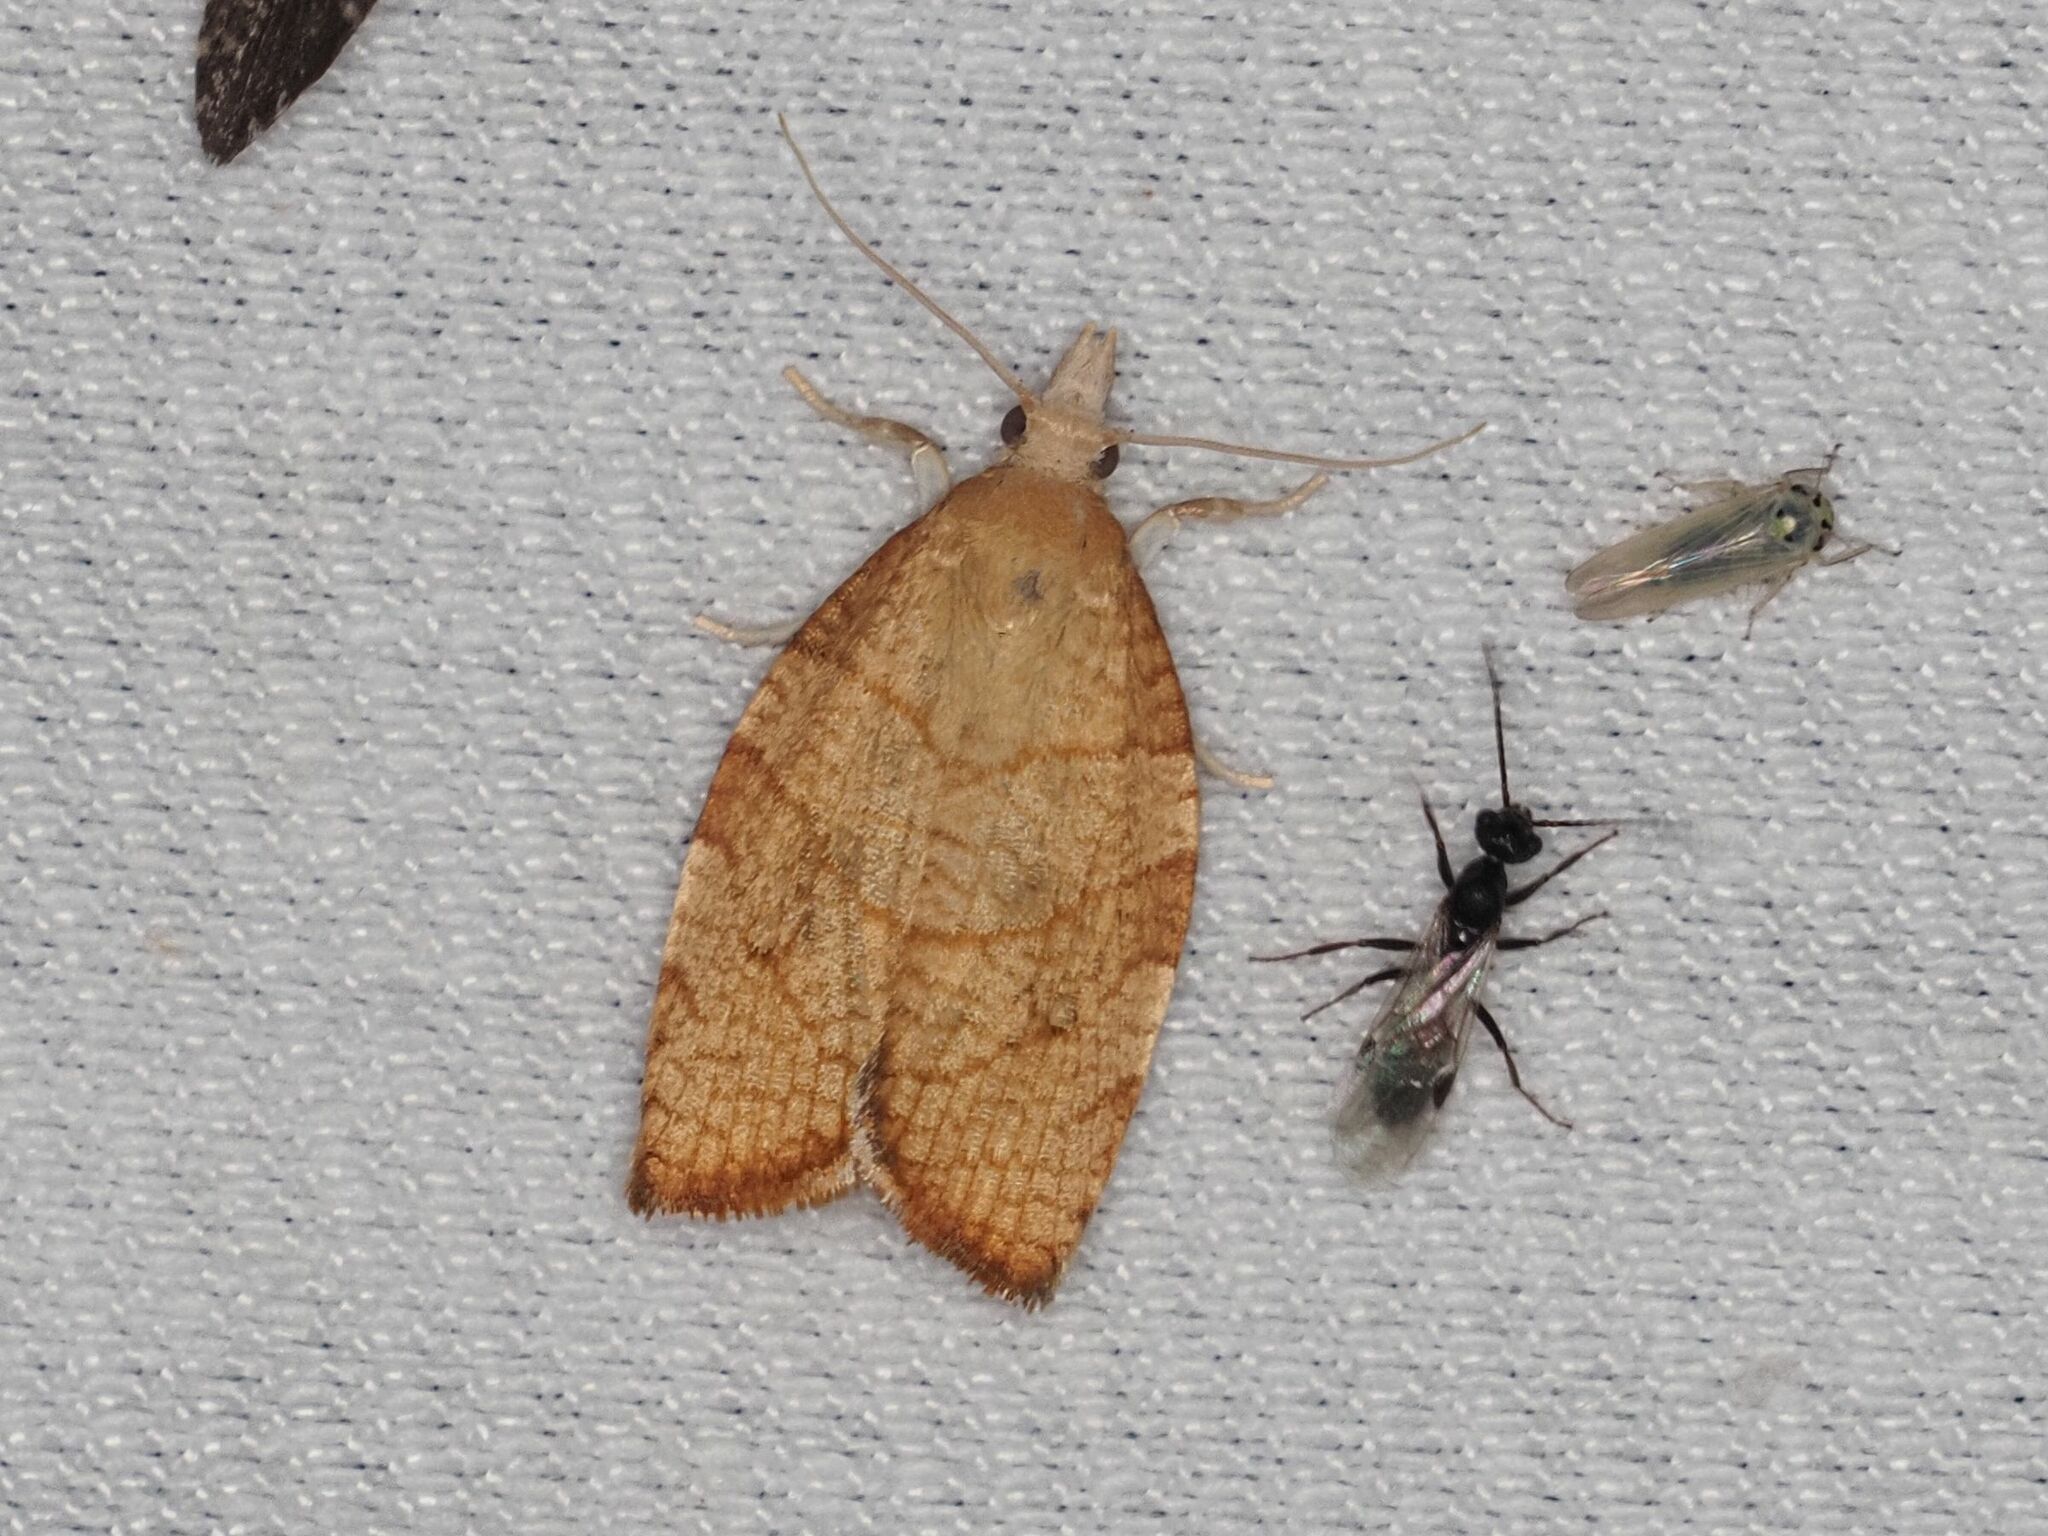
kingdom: Animalia
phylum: Arthropoda
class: Insecta
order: Lepidoptera
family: Tortricidae
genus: Pandemis
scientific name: Pandemis corylana
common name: Chequered fruit-tree tortrix
